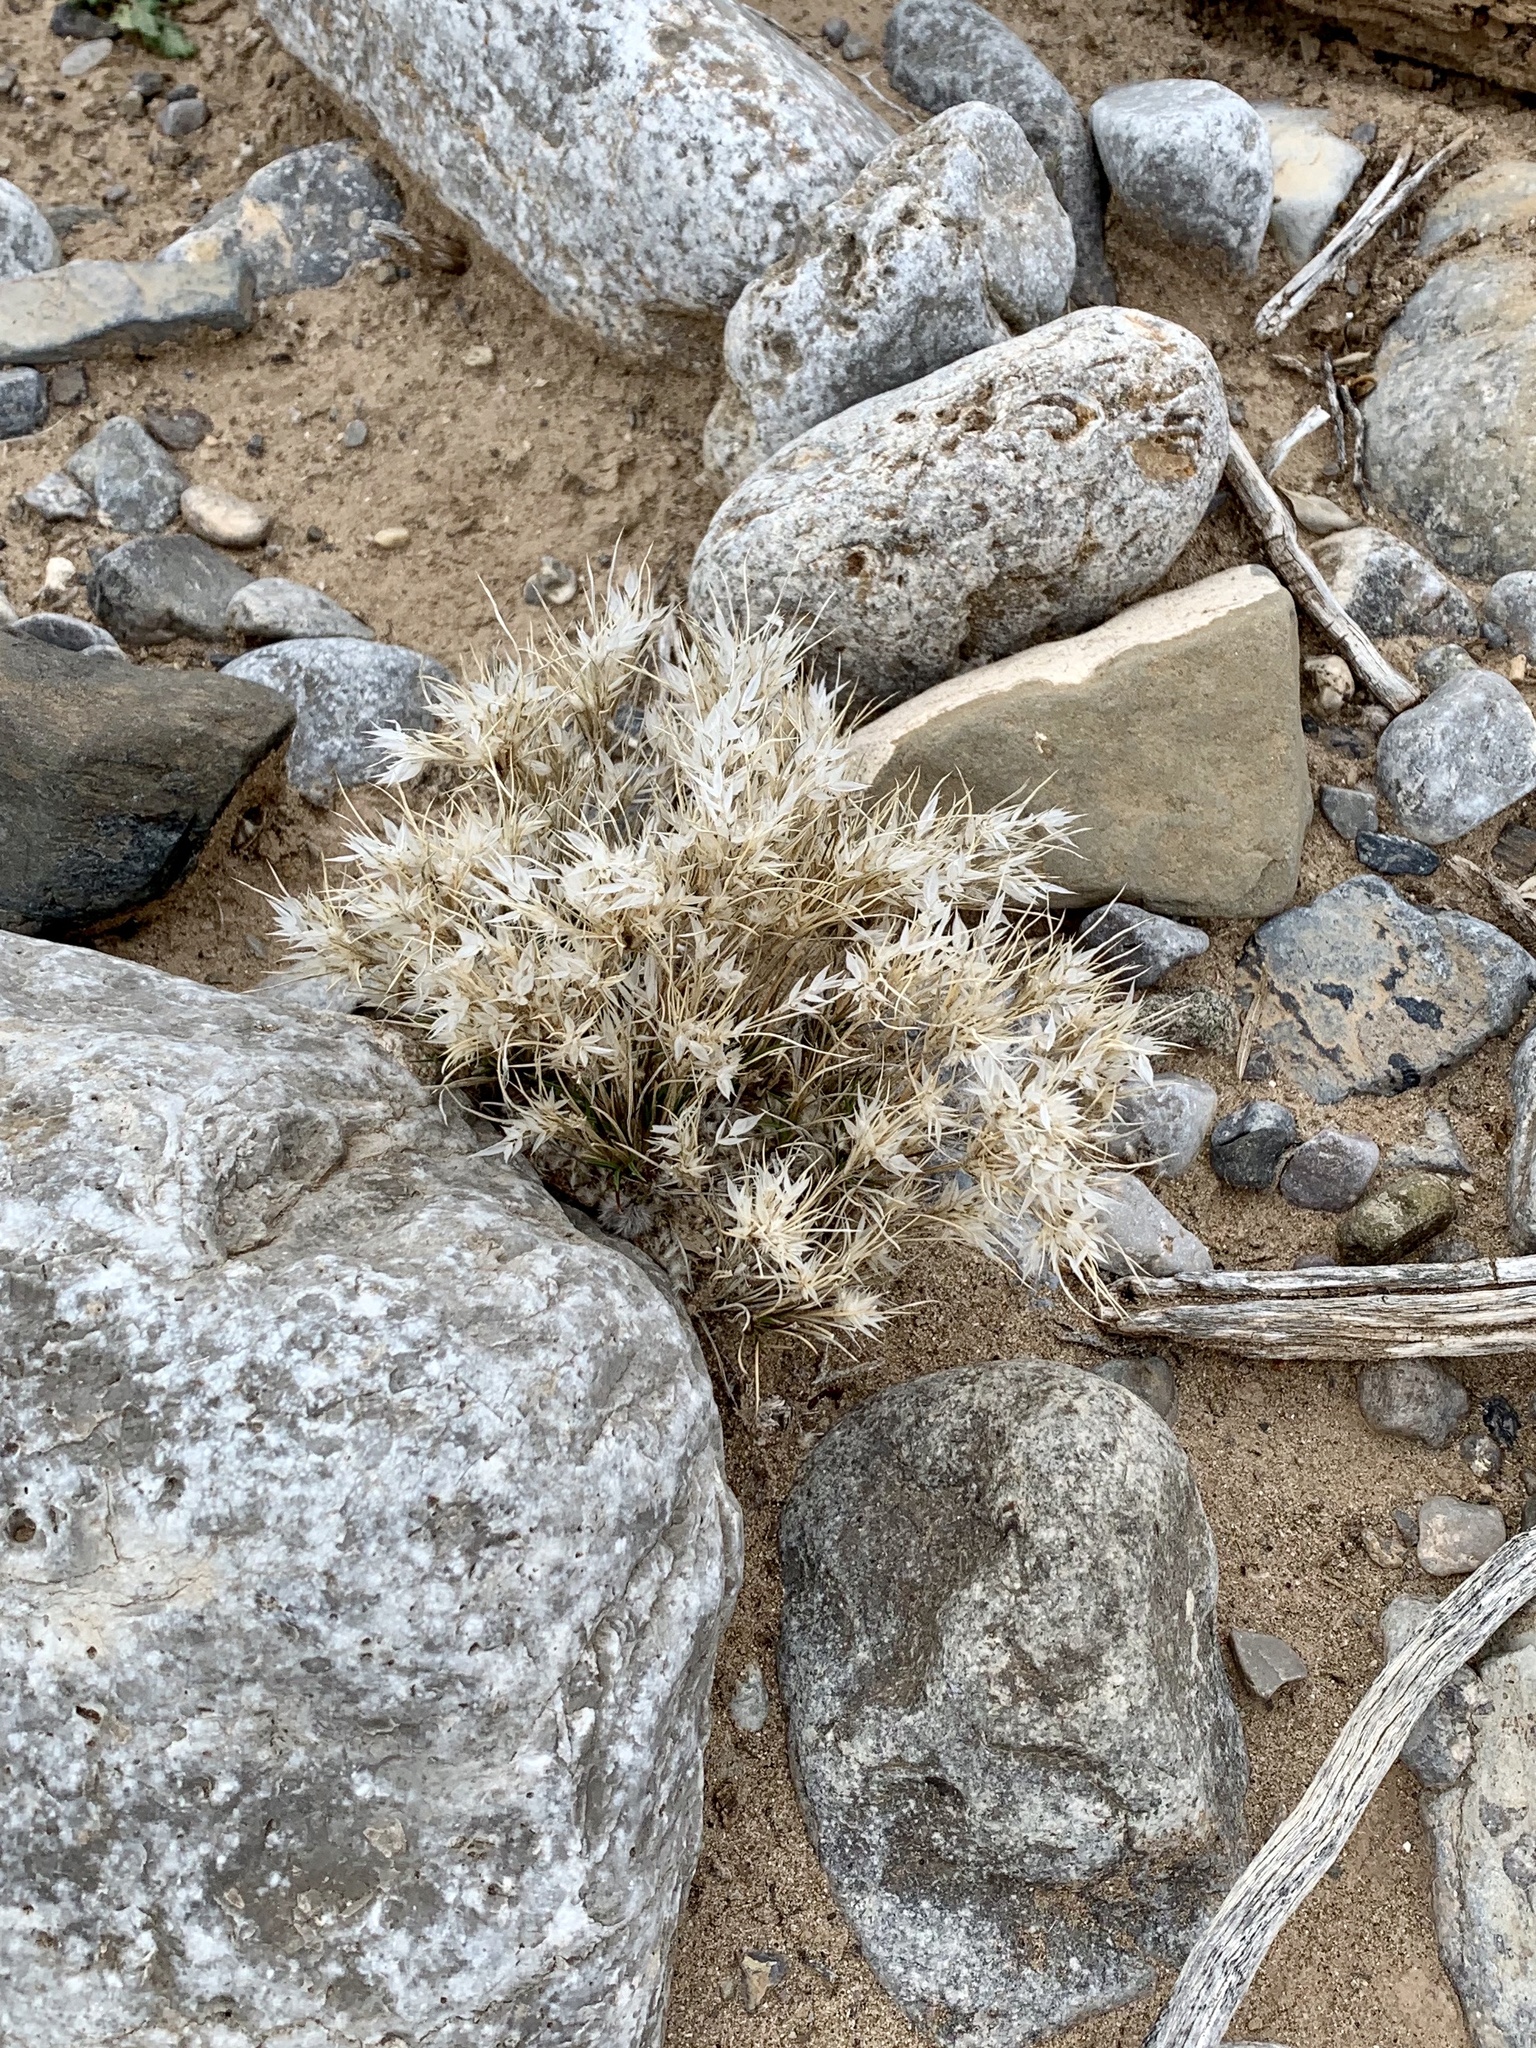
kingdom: Plantae
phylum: Tracheophyta
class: Liliopsida
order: Poales
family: Poaceae
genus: Dasyochloa
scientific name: Dasyochloa pulchella
